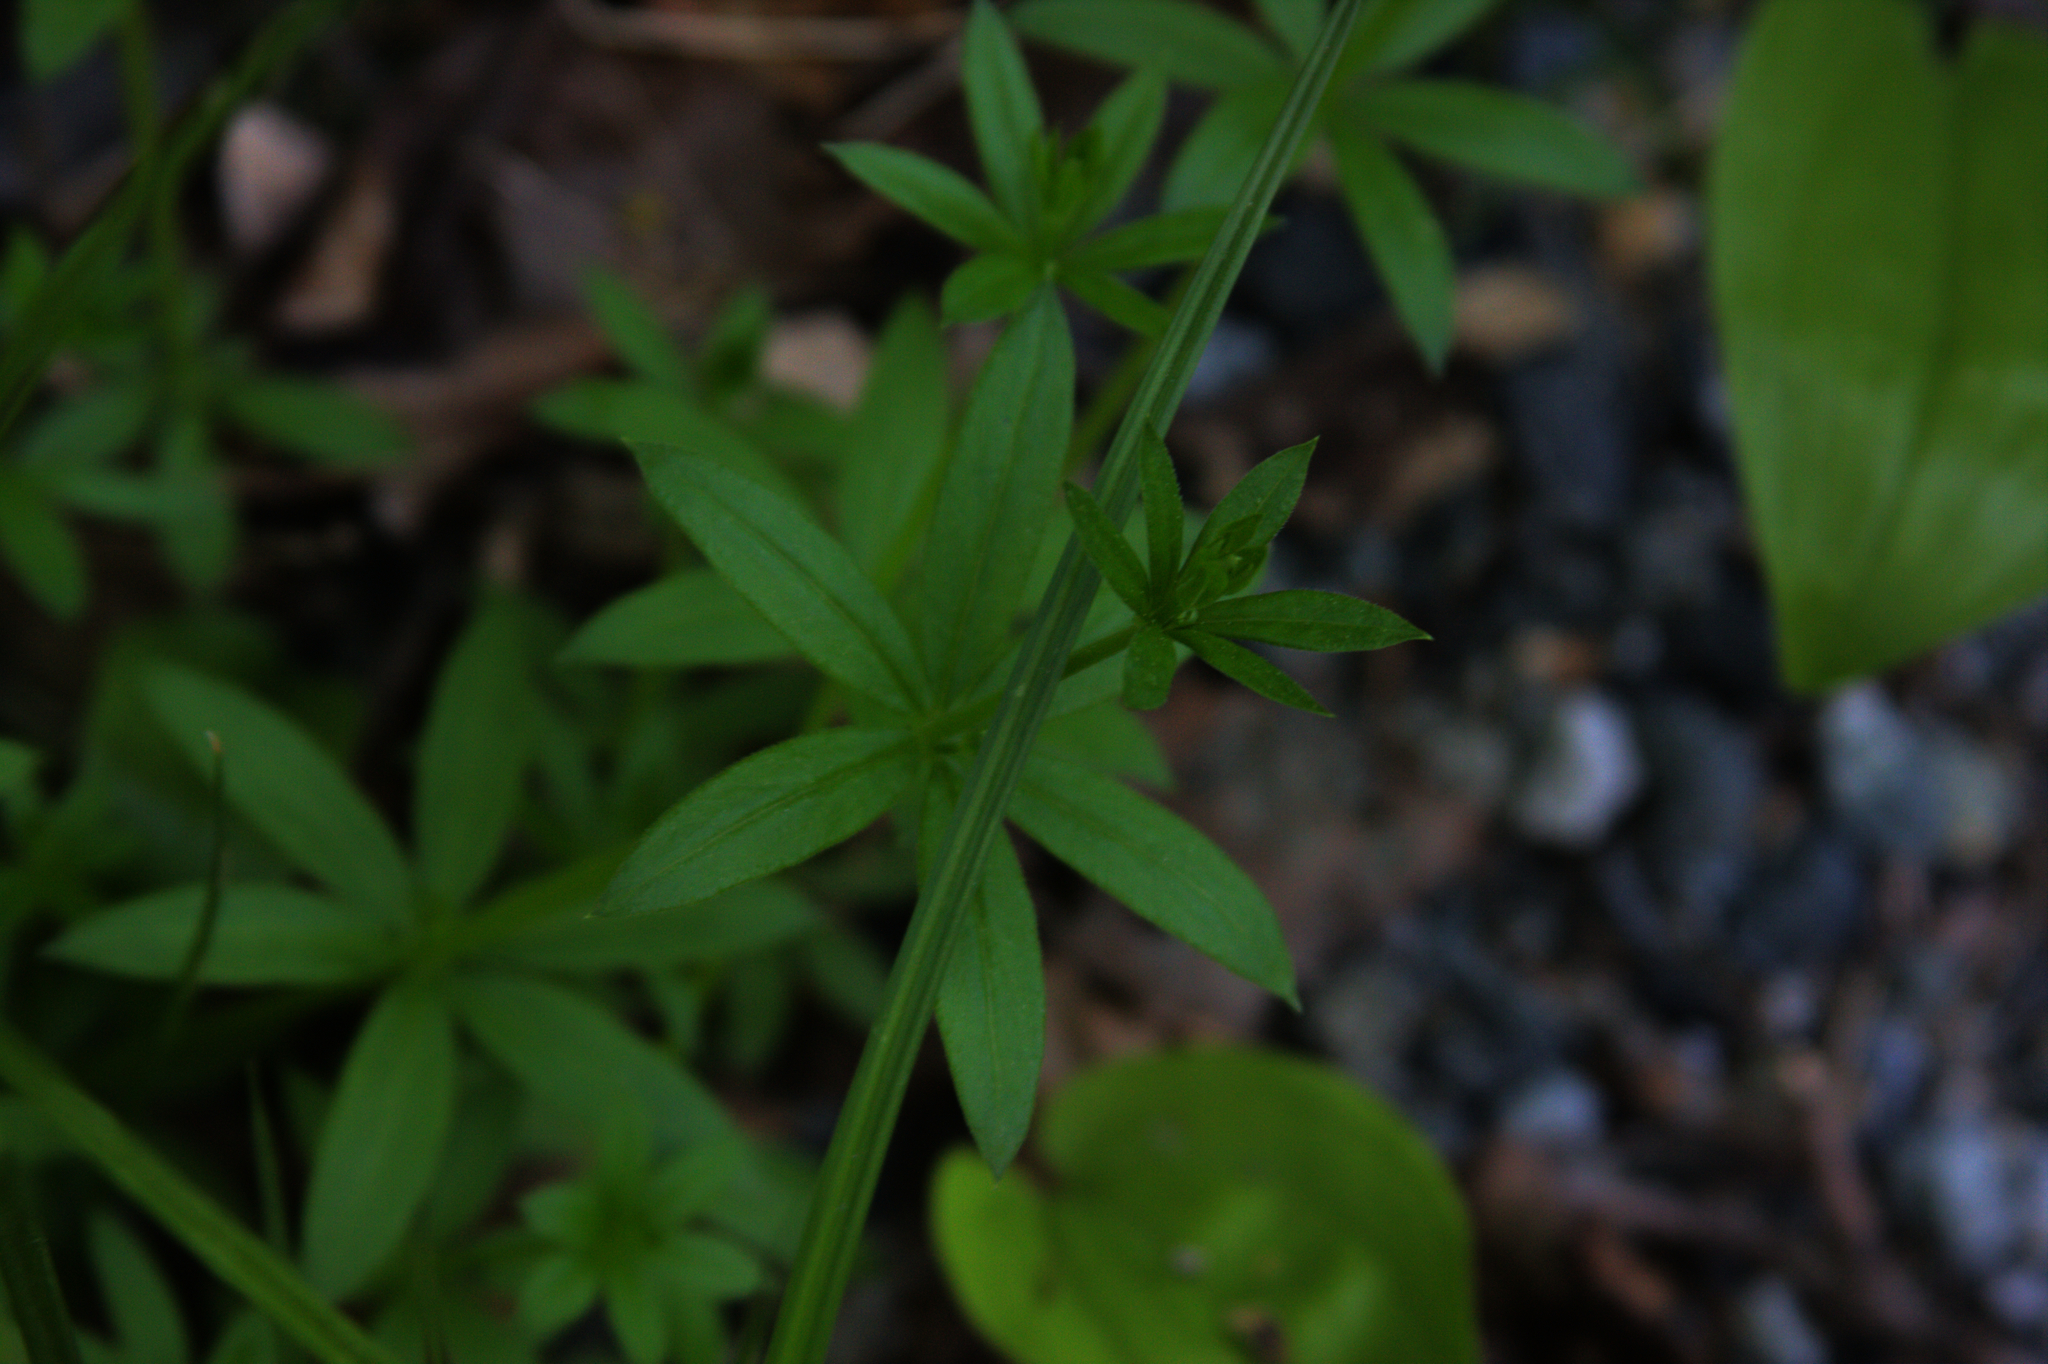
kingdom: Plantae
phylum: Tracheophyta
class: Magnoliopsida
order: Gentianales
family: Rubiaceae
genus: Galium
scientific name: Galium triflorum
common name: Fragrant bedstraw
